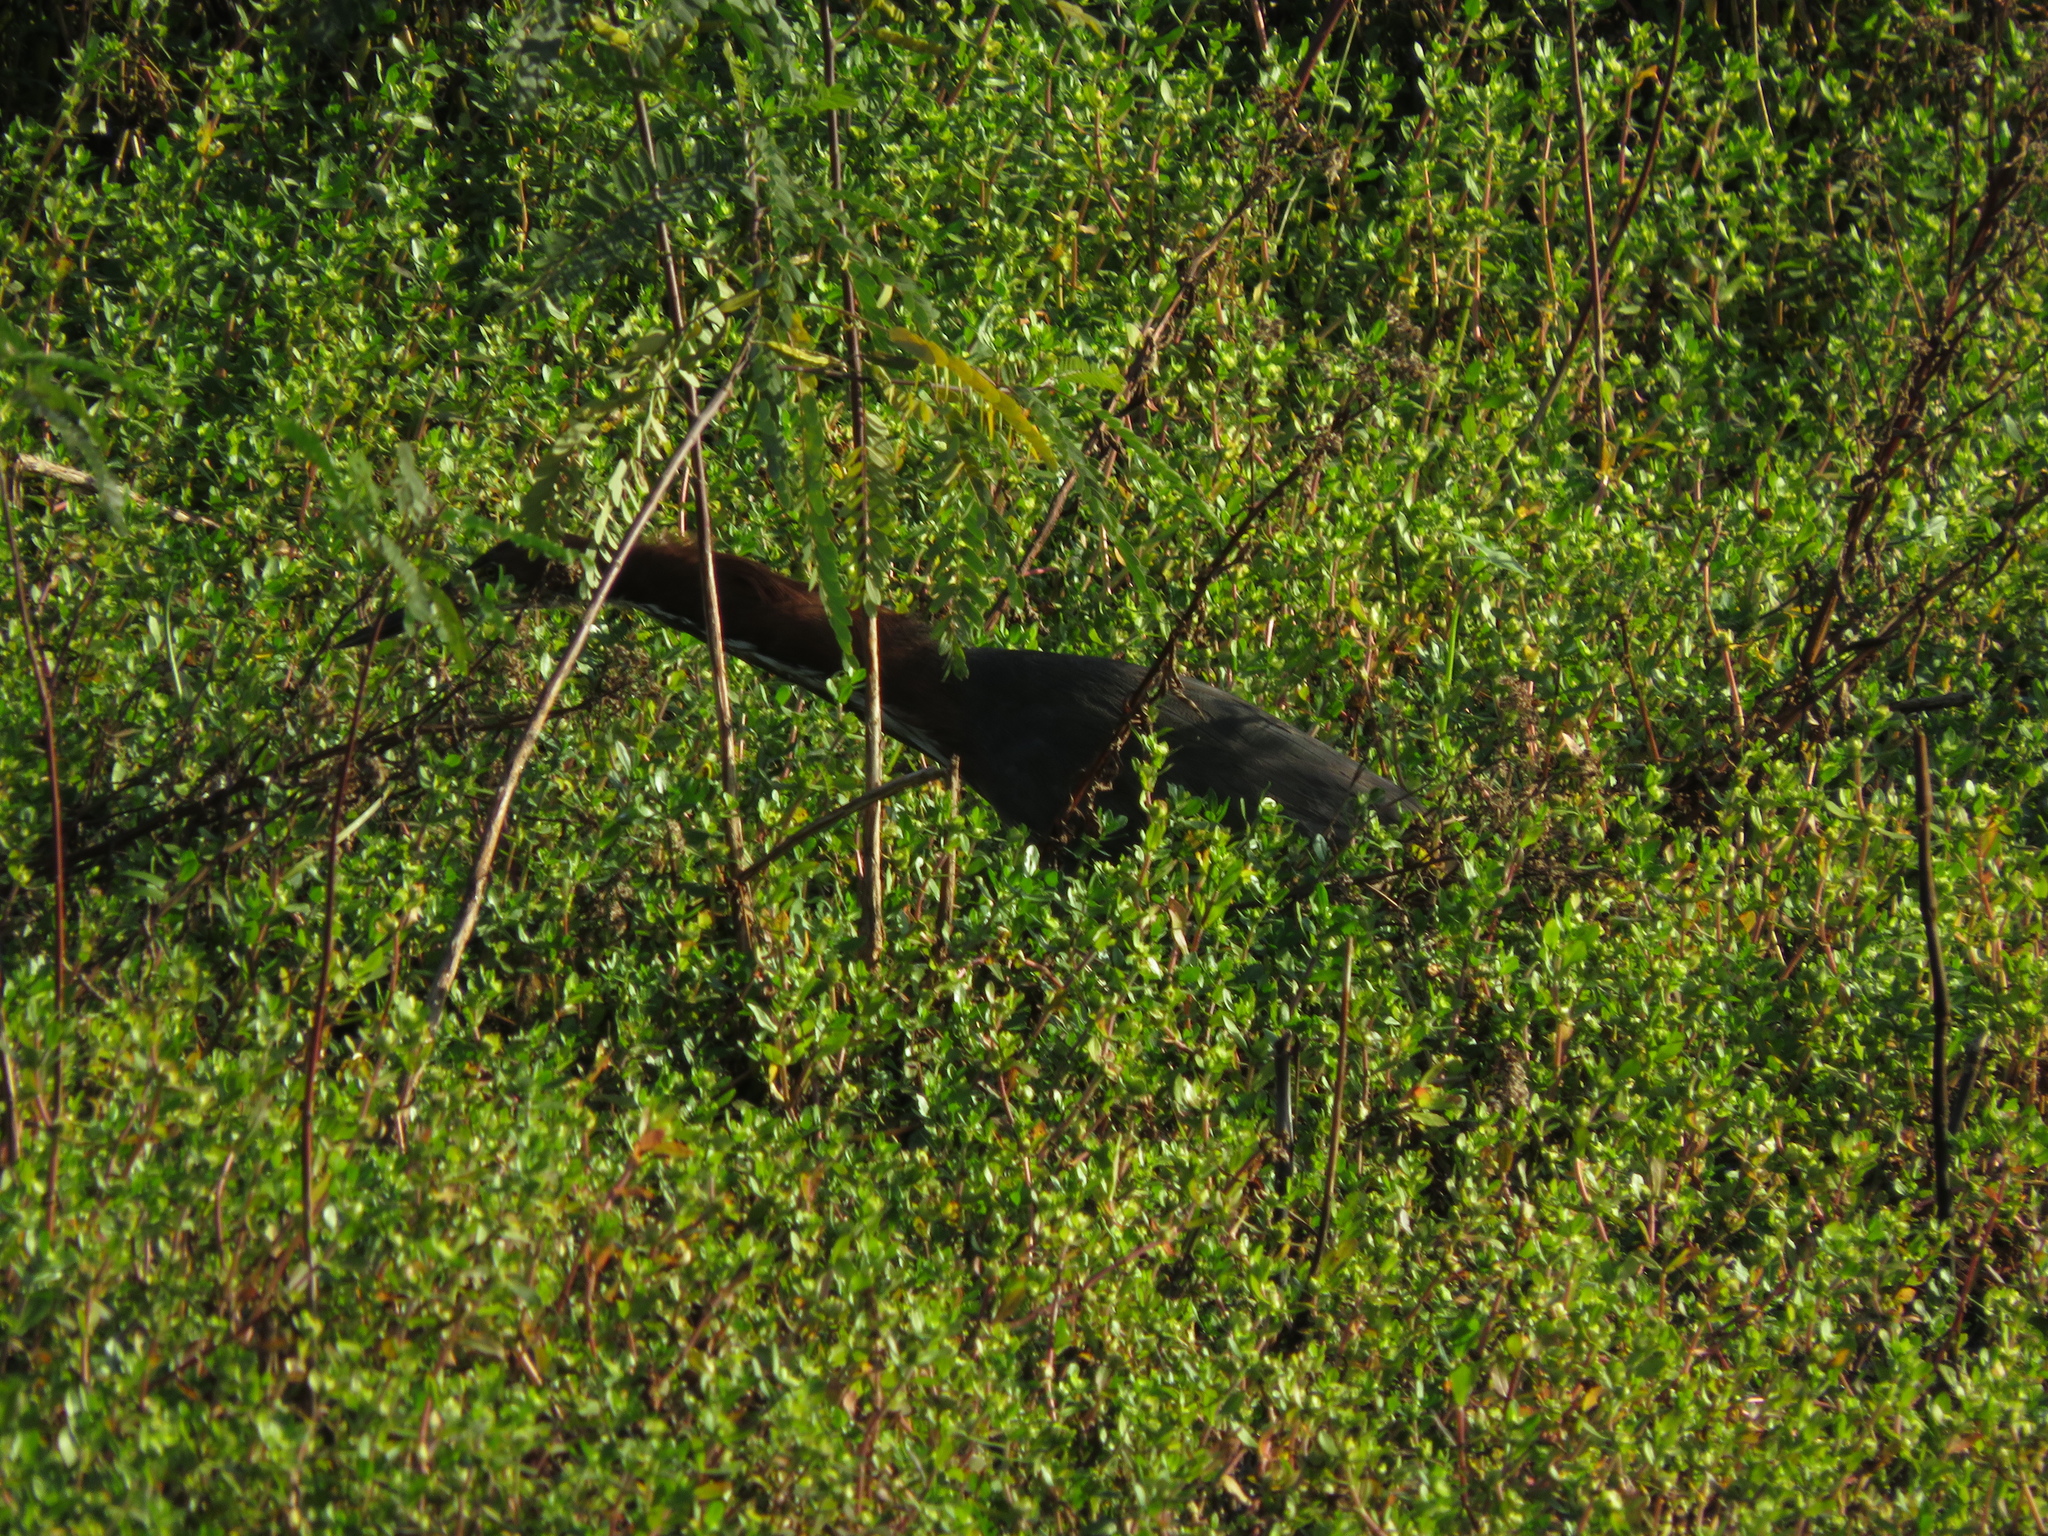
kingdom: Animalia
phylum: Chordata
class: Aves
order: Pelecaniformes
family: Ardeidae
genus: Tigrisoma
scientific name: Tigrisoma lineatum
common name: Rufescent tiger-heron
